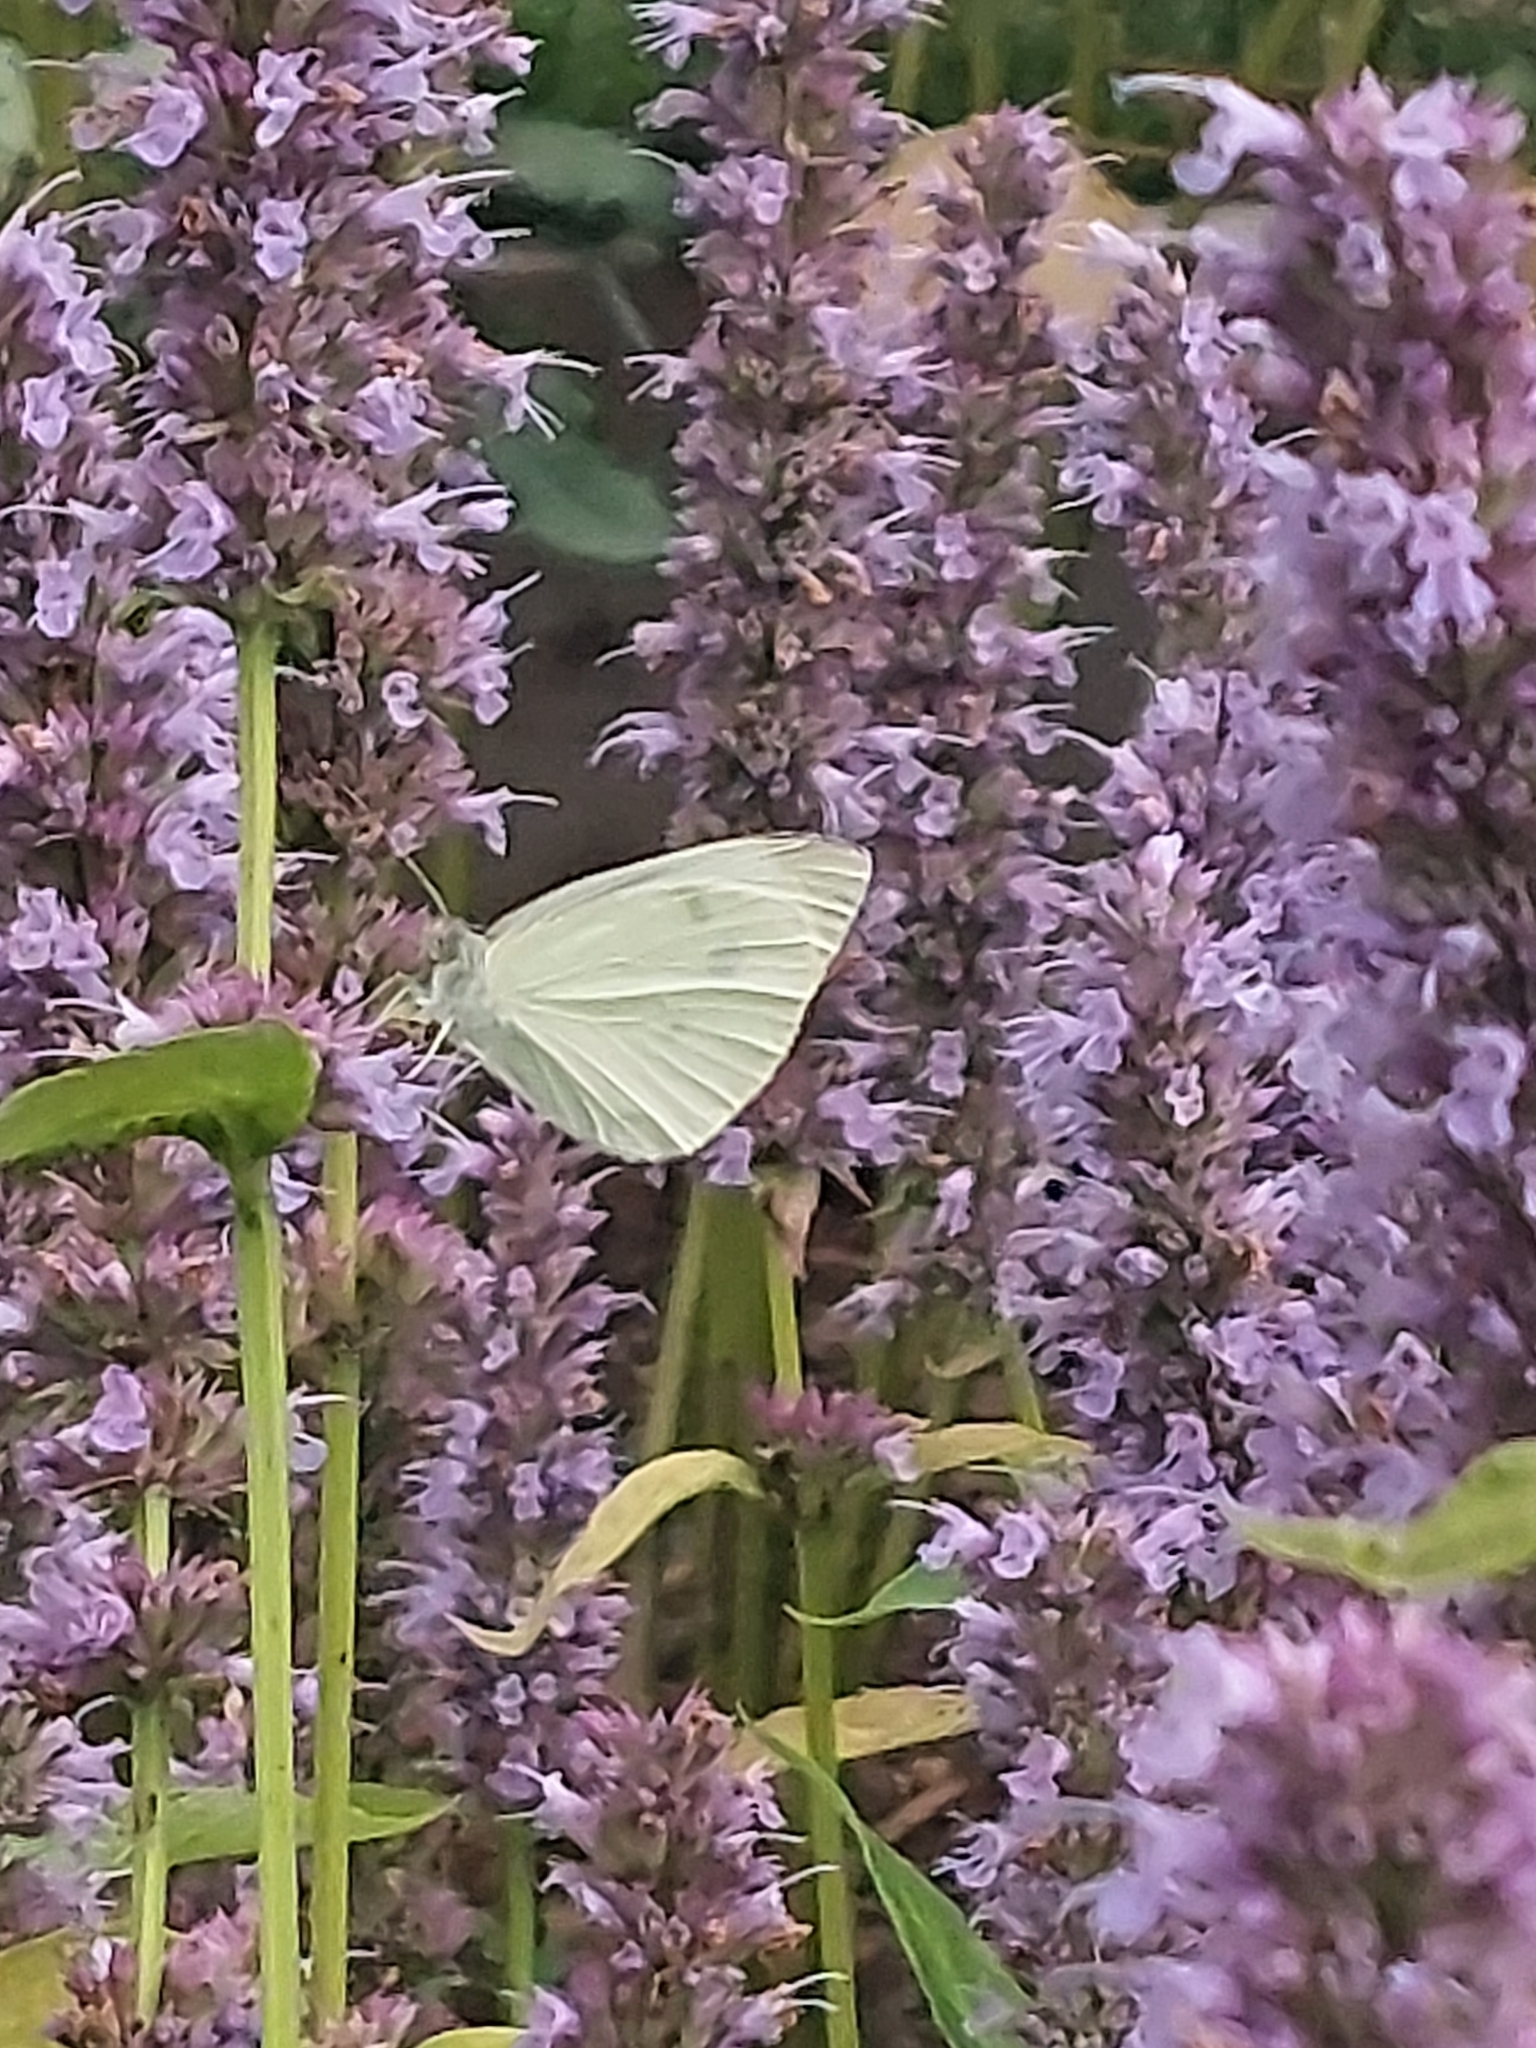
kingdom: Animalia
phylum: Arthropoda
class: Insecta
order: Lepidoptera
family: Pieridae
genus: Pieris
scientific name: Pieris rapae
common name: Small white
